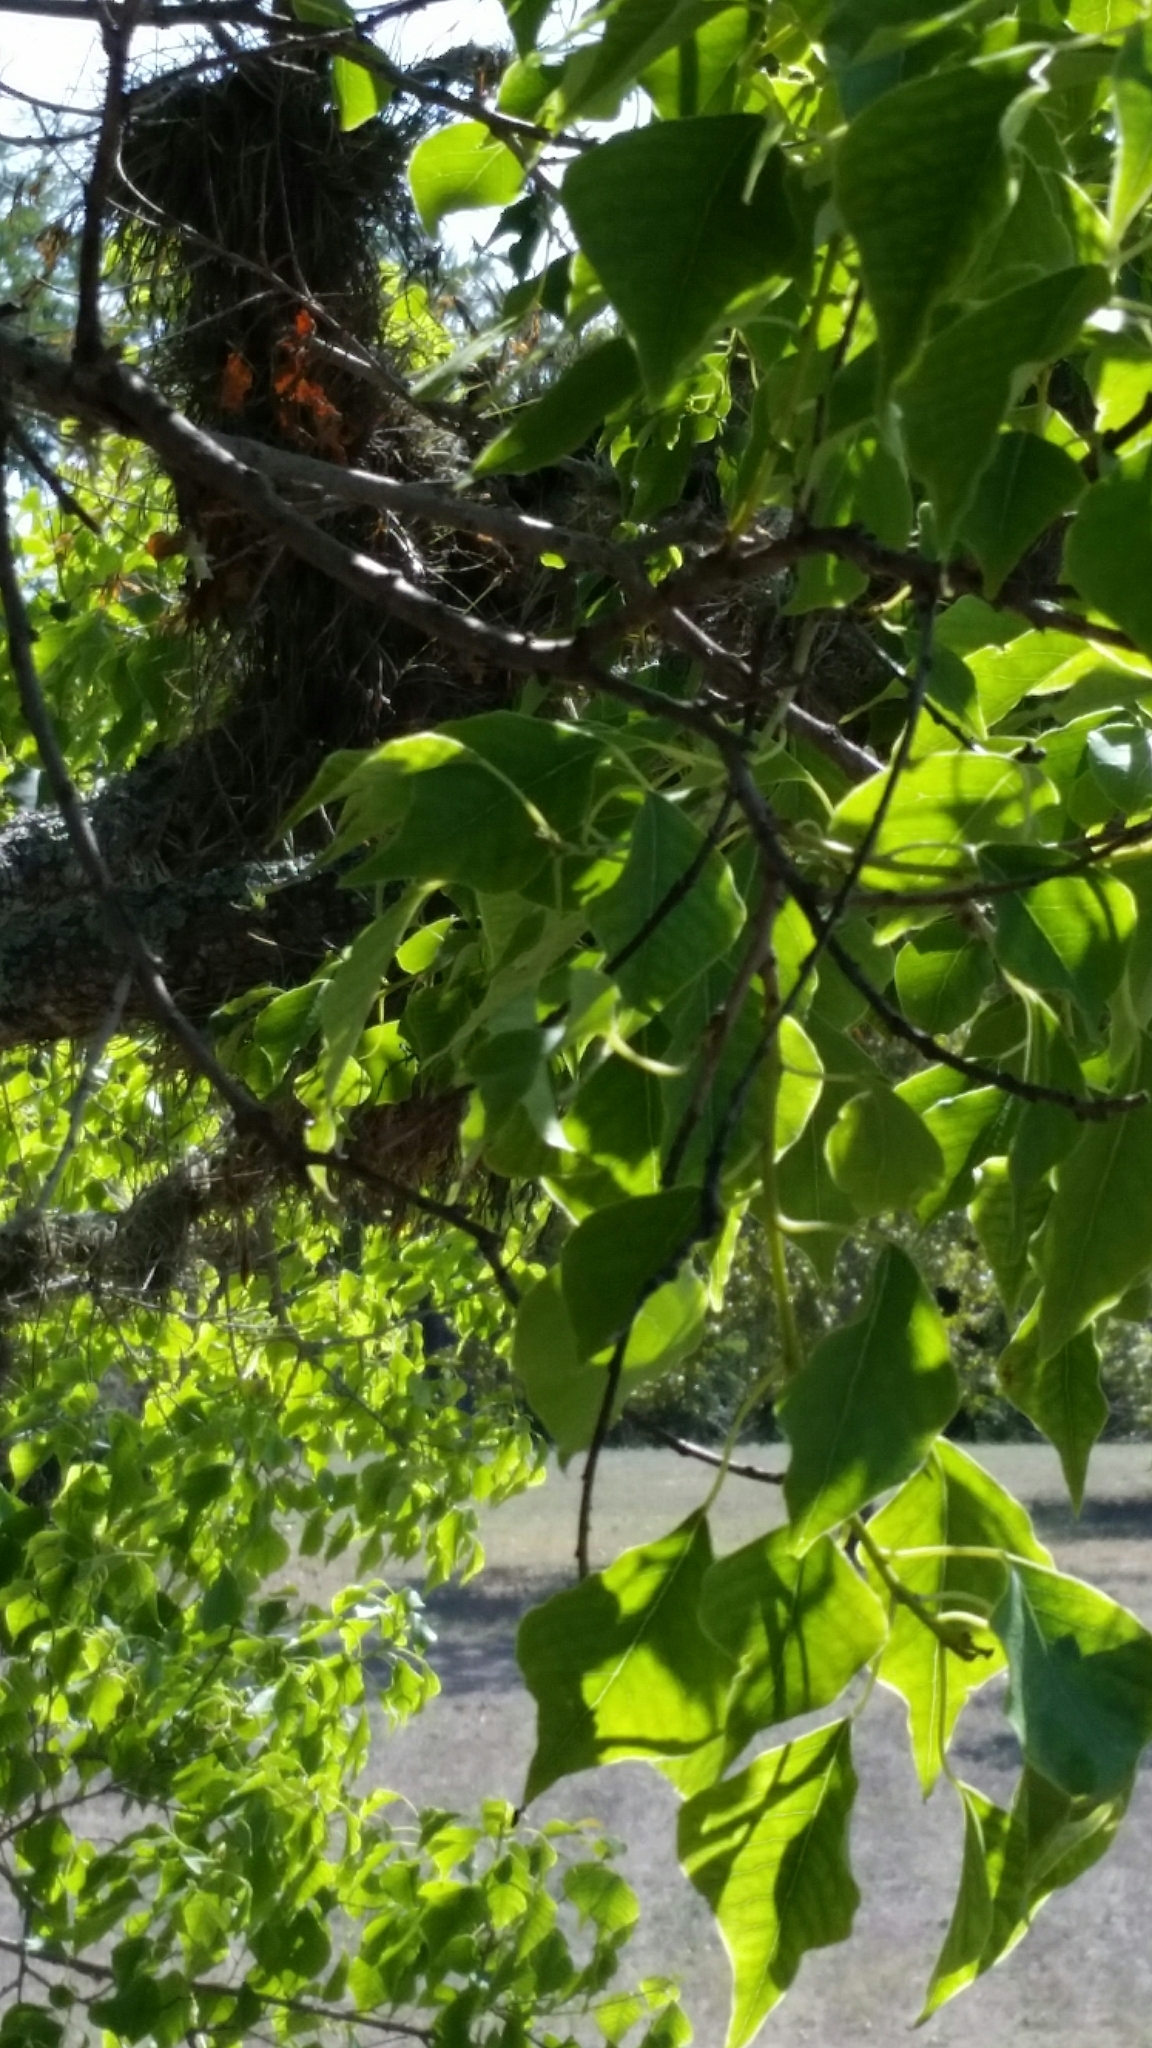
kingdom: Plantae
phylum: Tracheophyta
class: Magnoliopsida
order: Malpighiales
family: Euphorbiaceae
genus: Triadica
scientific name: Triadica sebifera
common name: Chinese tallow
